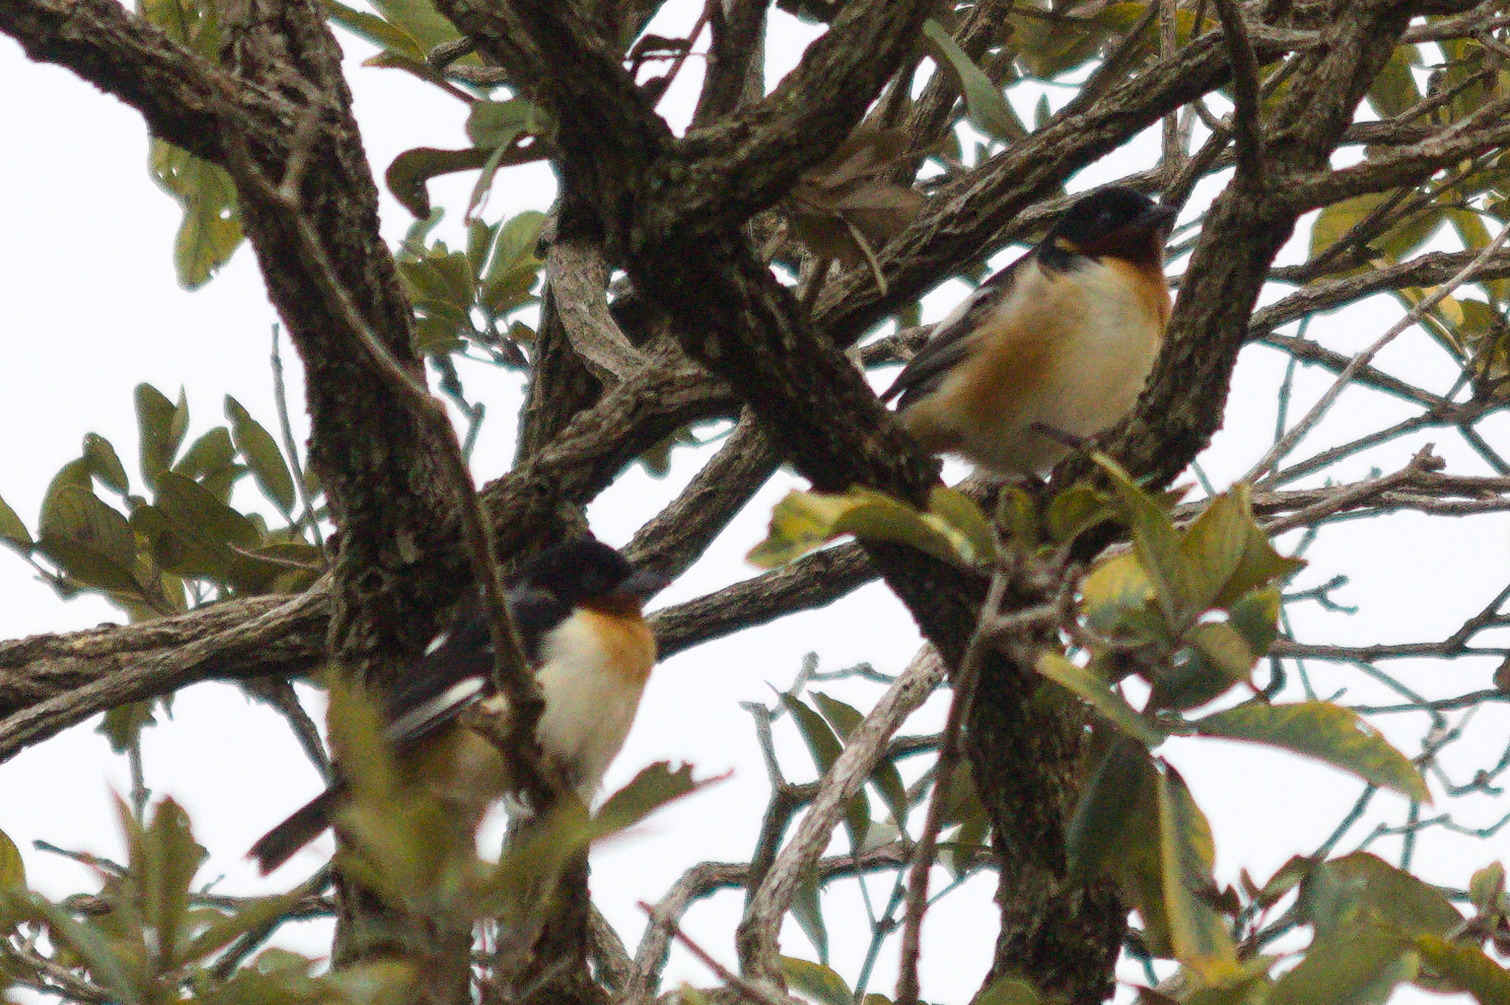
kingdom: Animalia
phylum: Chordata
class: Aves
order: Passeriformes
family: Thraupidae
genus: Cypsnagra
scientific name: Cypsnagra hirundinacea
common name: White-rumped tanager
